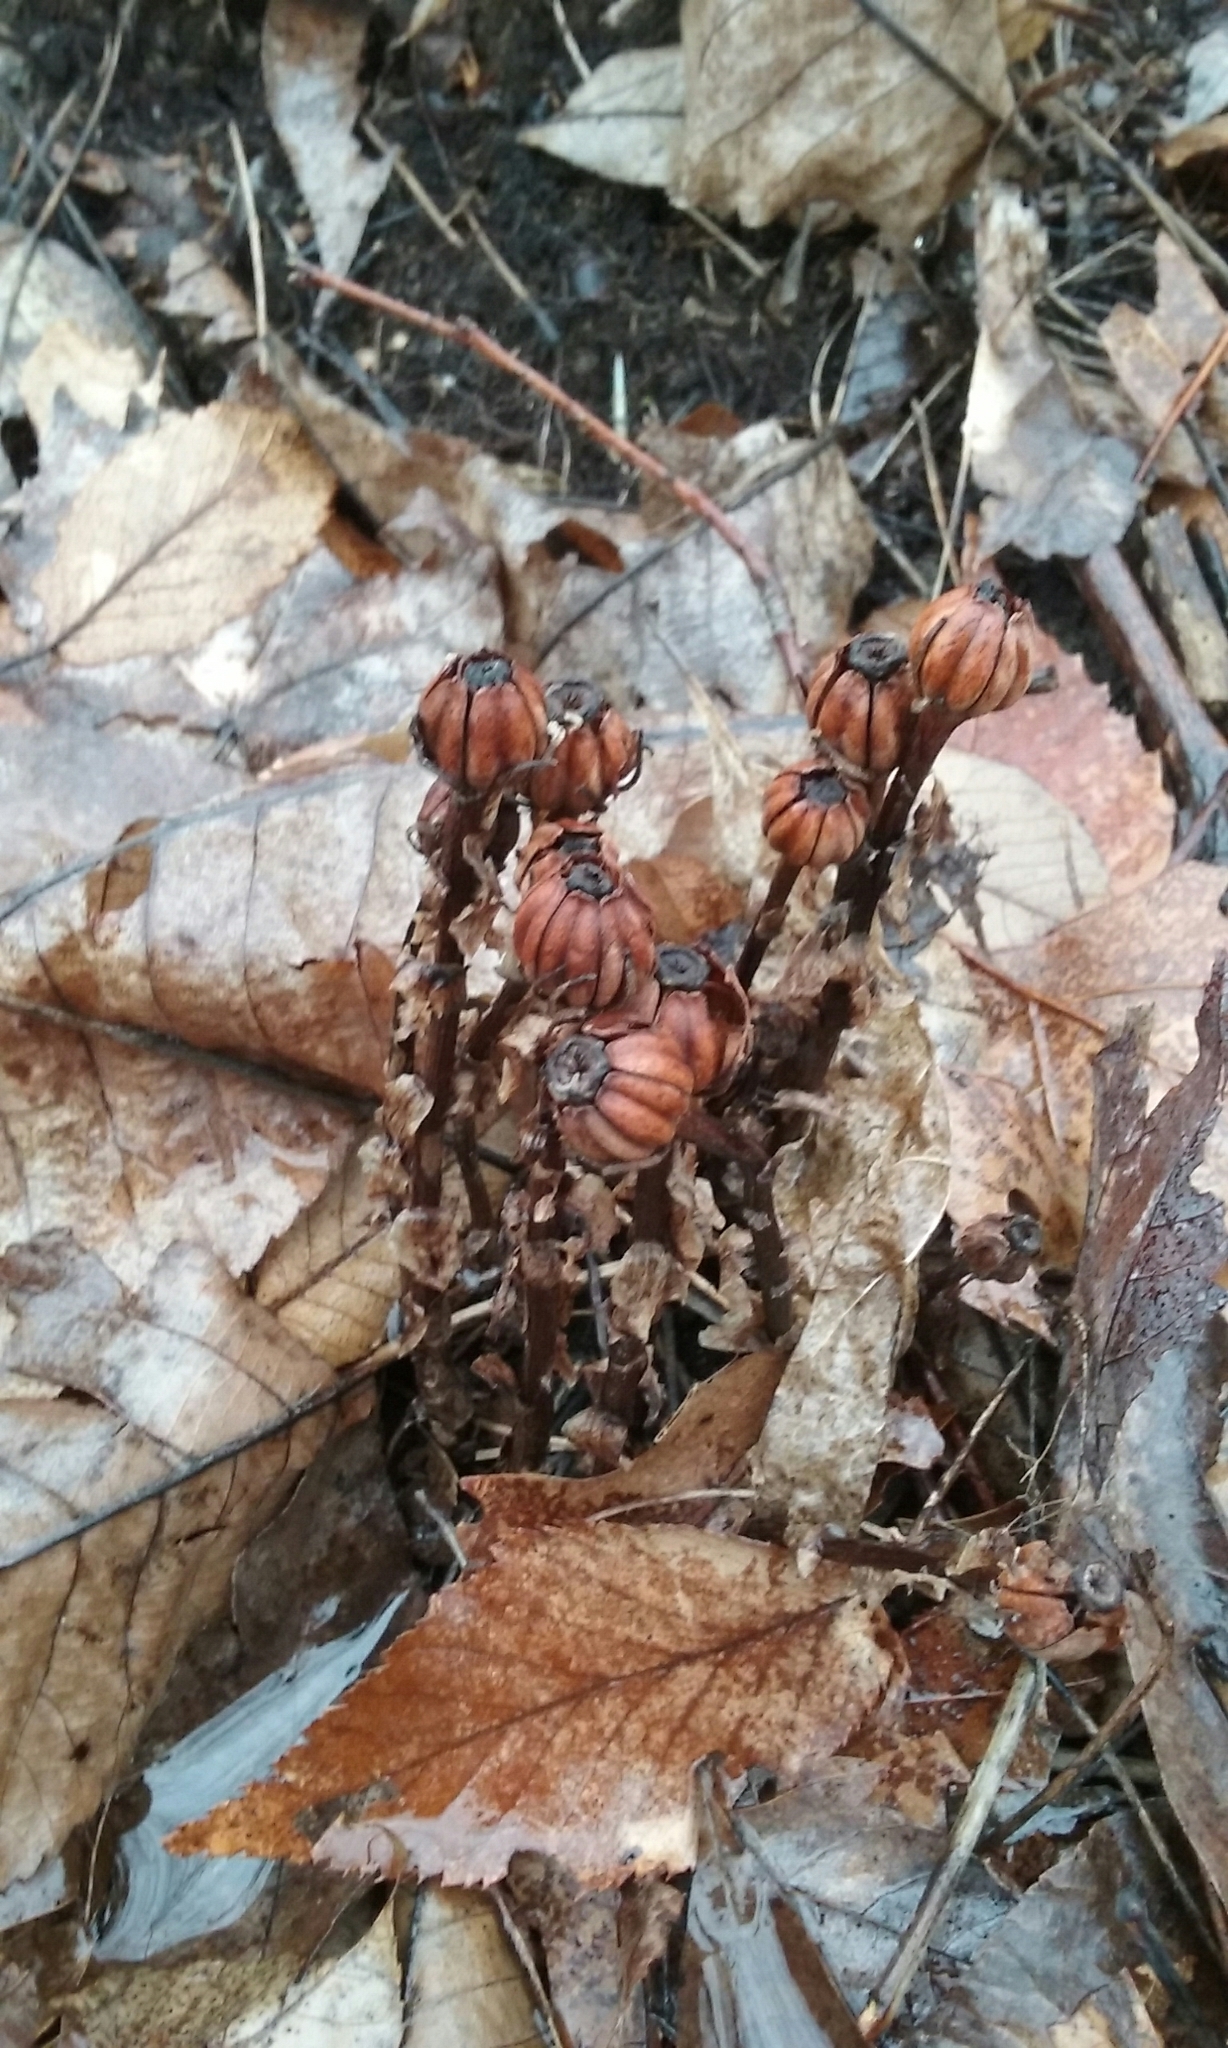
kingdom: Plantae
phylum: Tracheophyta
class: Magnoliopsida
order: Ericales
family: Ericaceae
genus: Monotropa
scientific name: Monotropa uniflora
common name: Convulsion root
